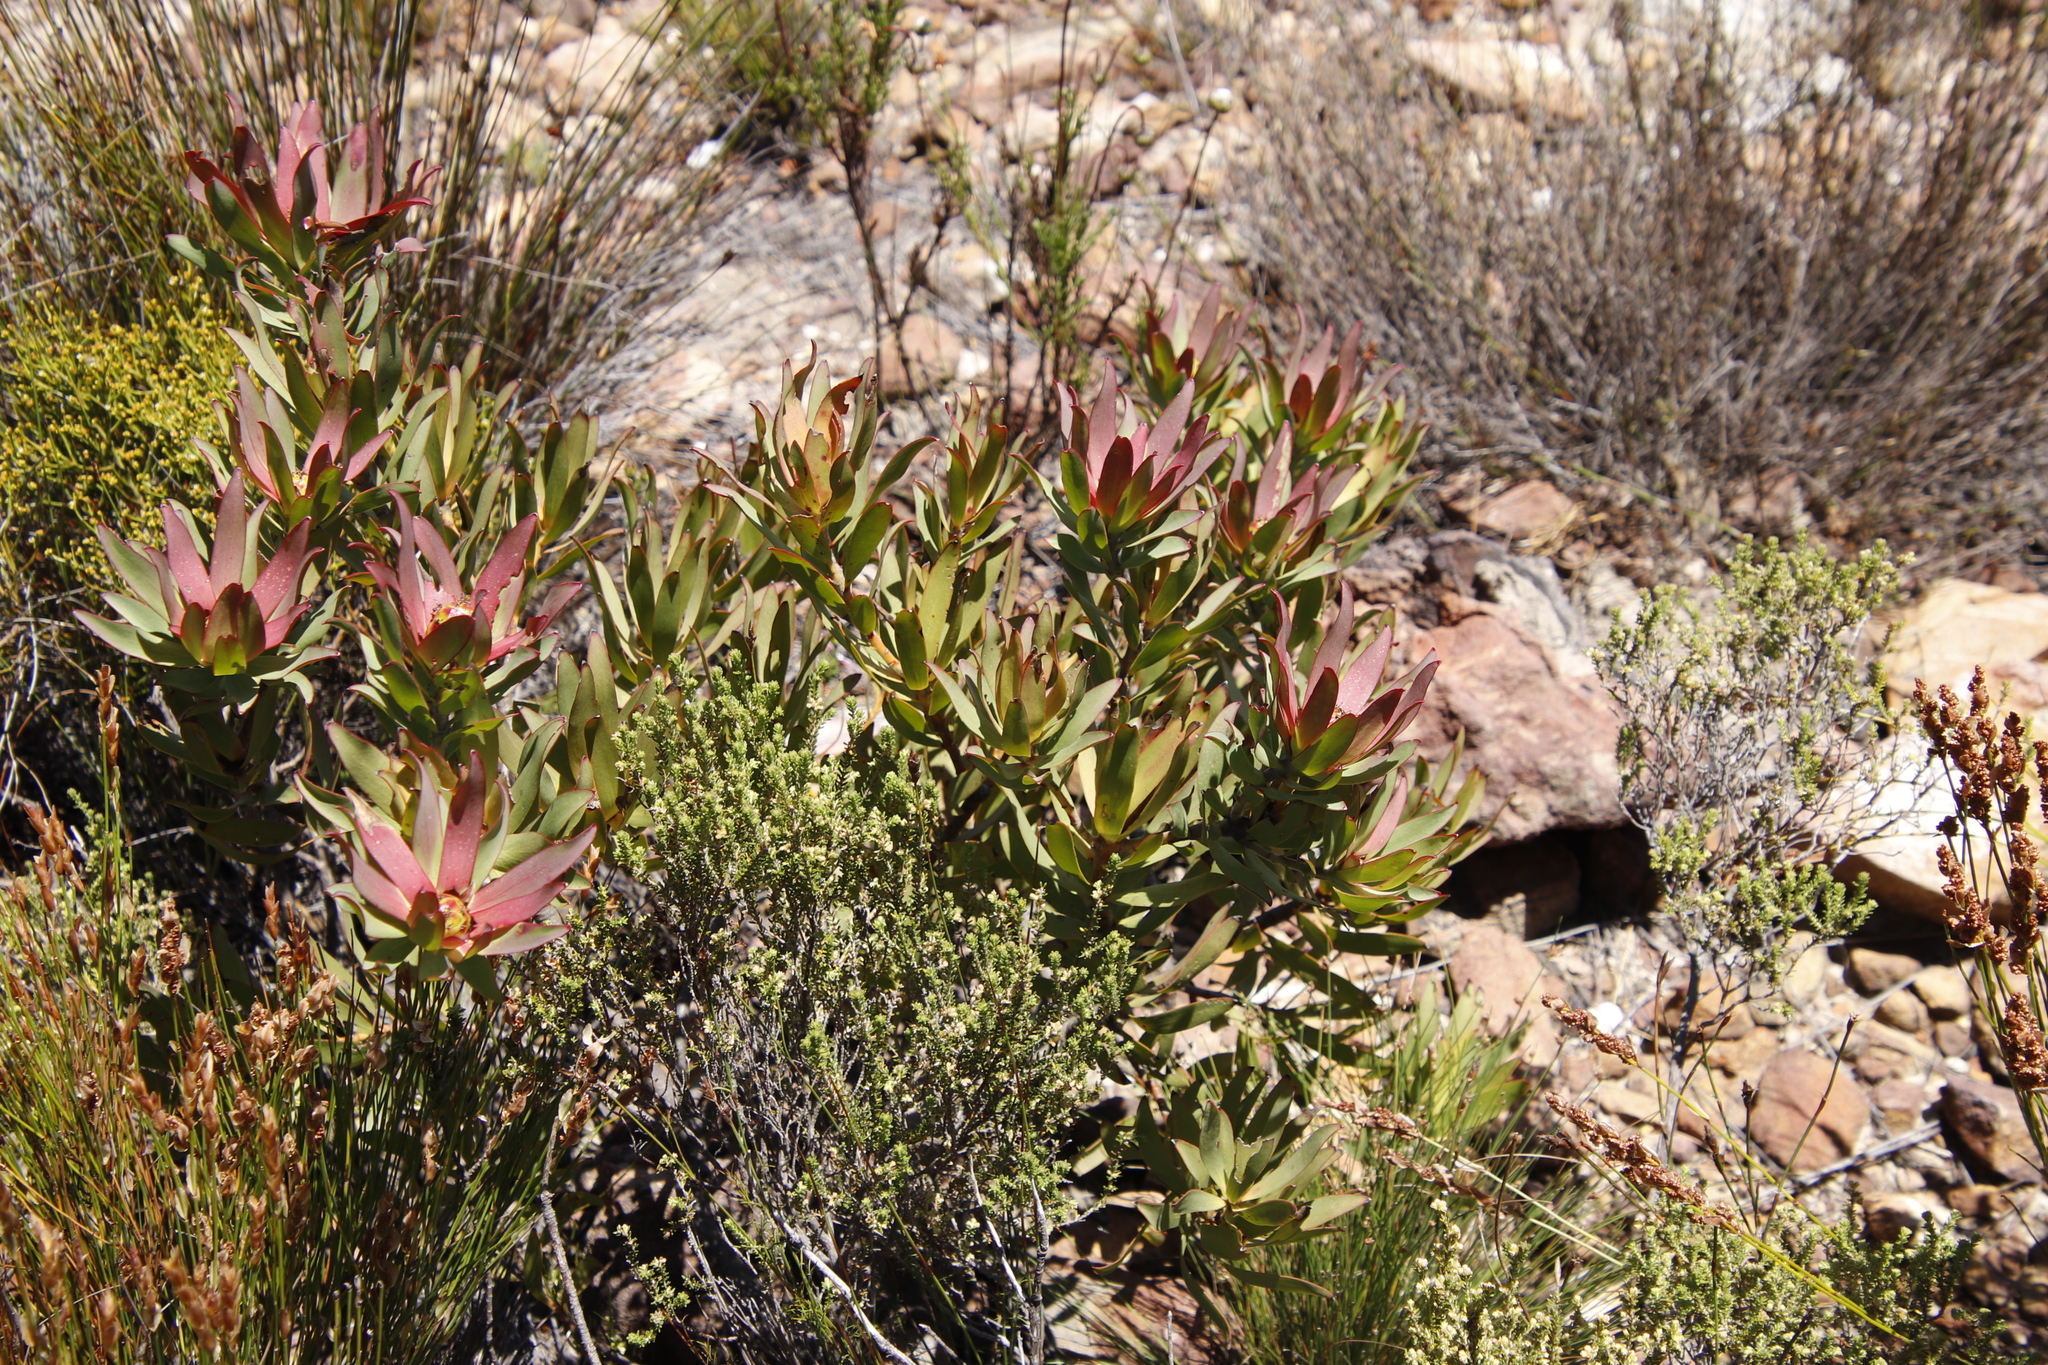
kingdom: Plantae
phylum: Tracheophyta
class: Magnoliopsida
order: Proteales
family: Proteaceae
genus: Leucadendron
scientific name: Leucadendron sessile
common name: Western sunbush
